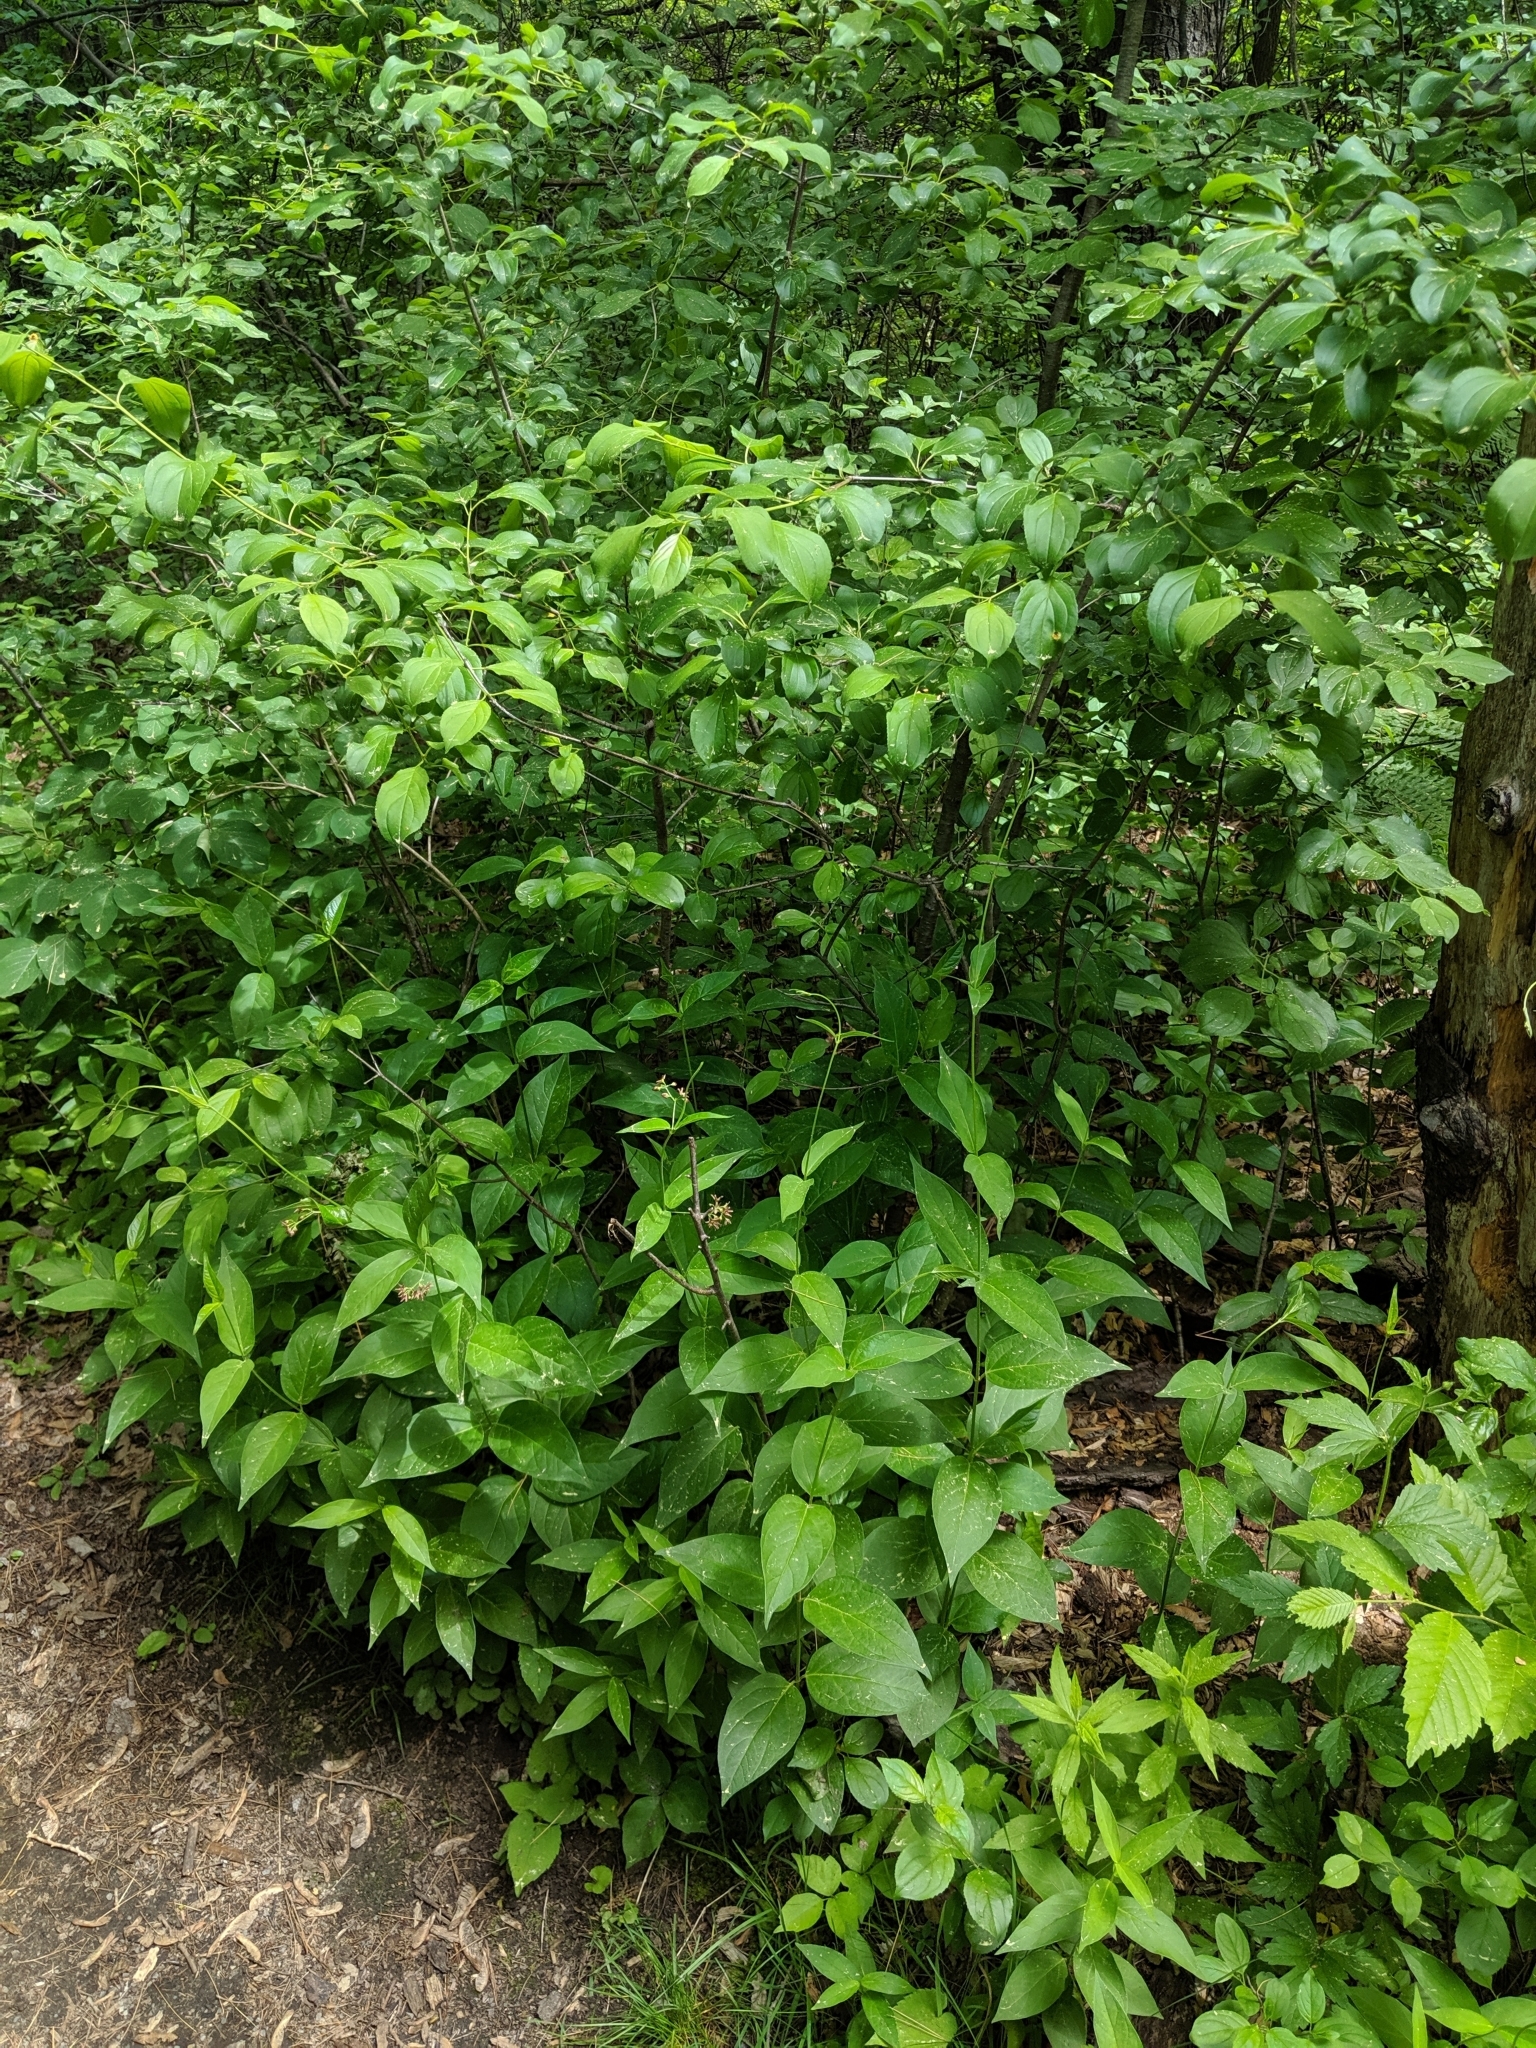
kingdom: Plantae
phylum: Tracheophyta
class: Magnoliopsida
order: Gentianales
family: Apocynaceae
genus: Vincetoxicum
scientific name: Vincetoxicum rossicum
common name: Dog-strangling vine
